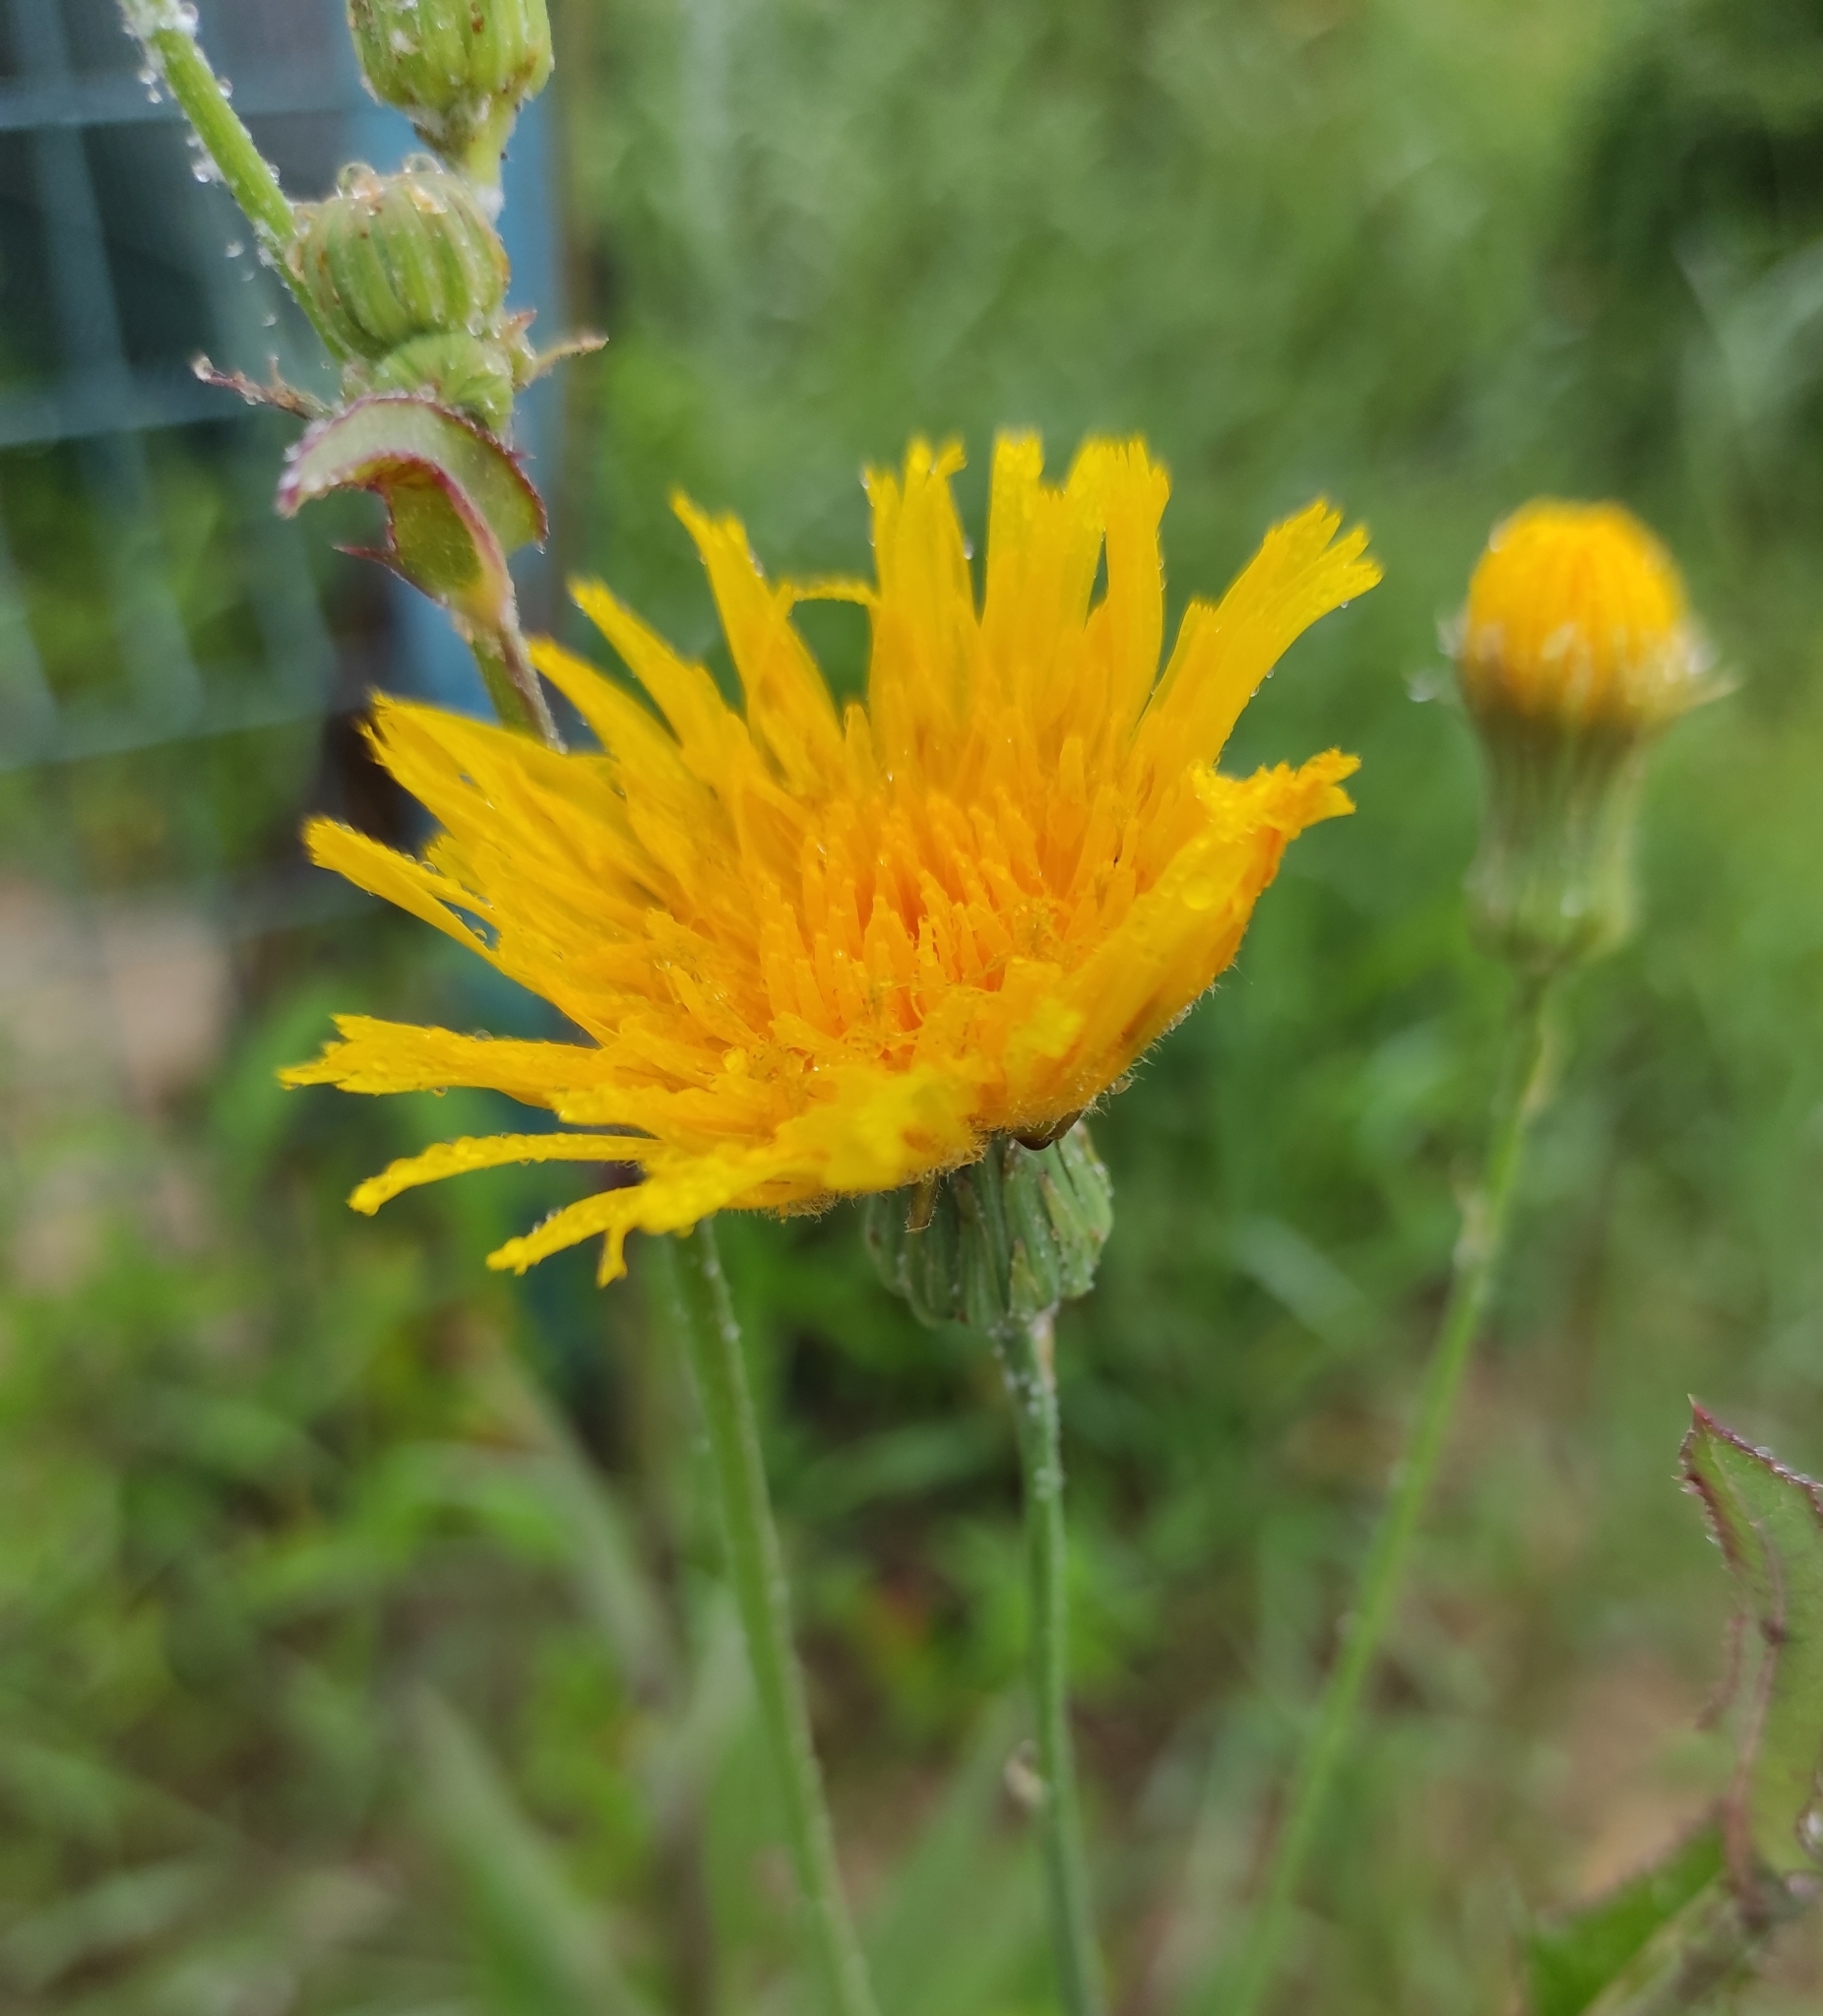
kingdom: Plantae
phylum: Tracheophyta
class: Magnoliopsida
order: Asterales
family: Asteraceae
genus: Sonchus
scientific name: Sonchus arvensis
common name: Perennial sow-thistle
